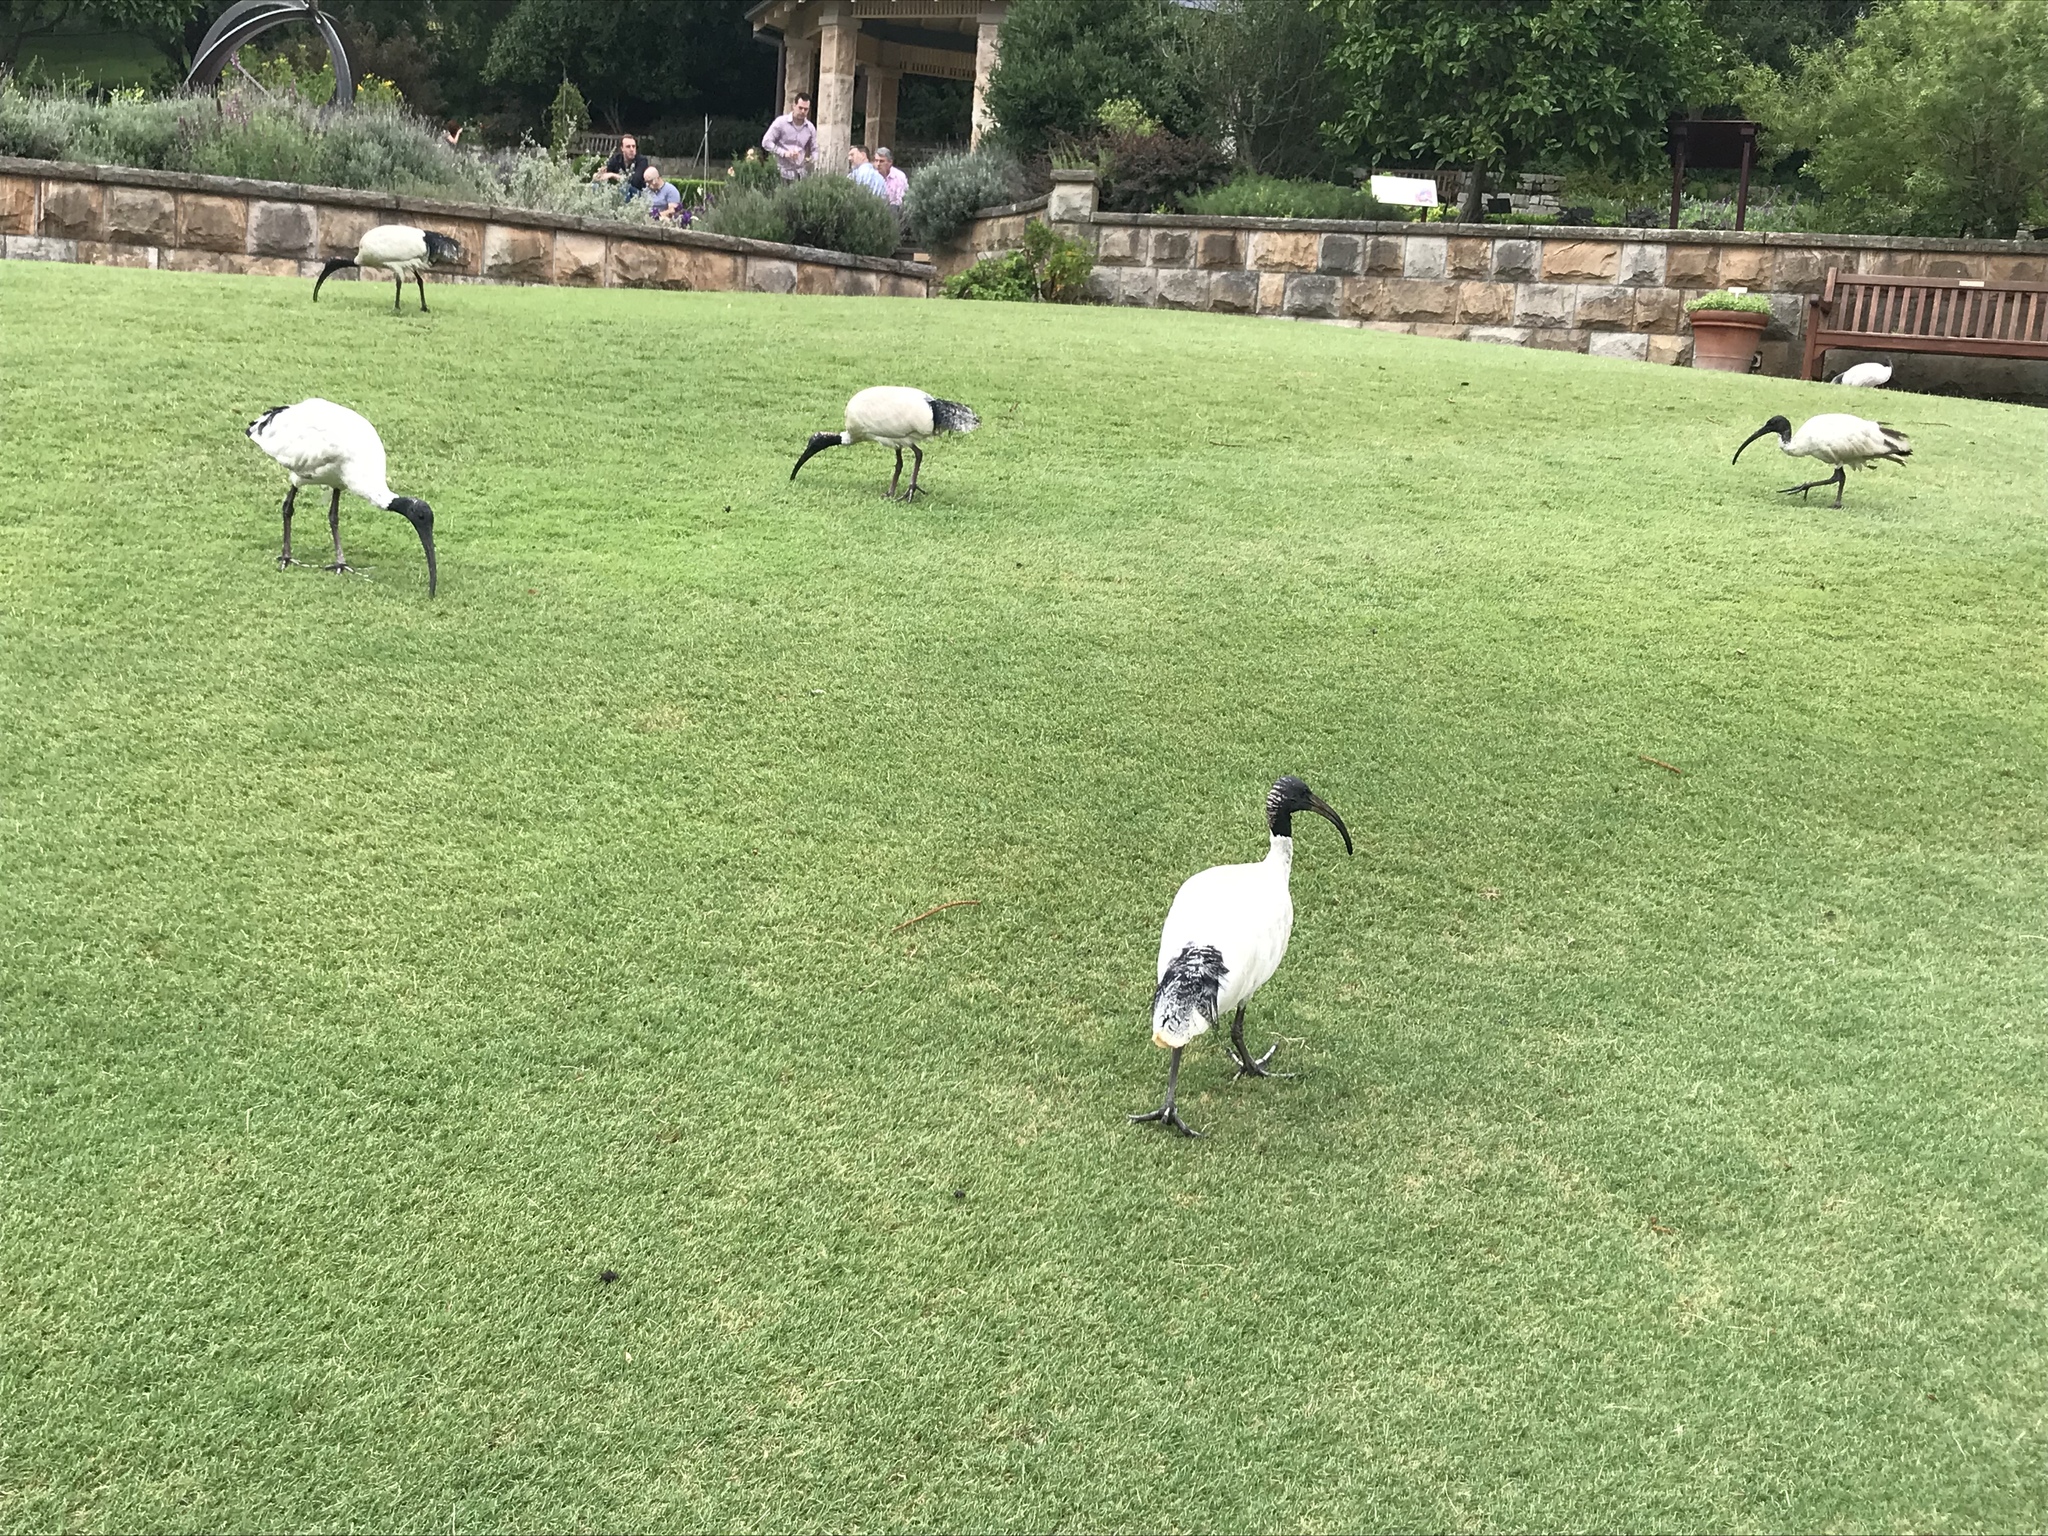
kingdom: Animalia
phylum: Chordata
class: Aves
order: Pelecaniformes
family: Threskiornithidae
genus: Threskiornis
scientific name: Threskiornis molucca
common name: Australian white ibis
